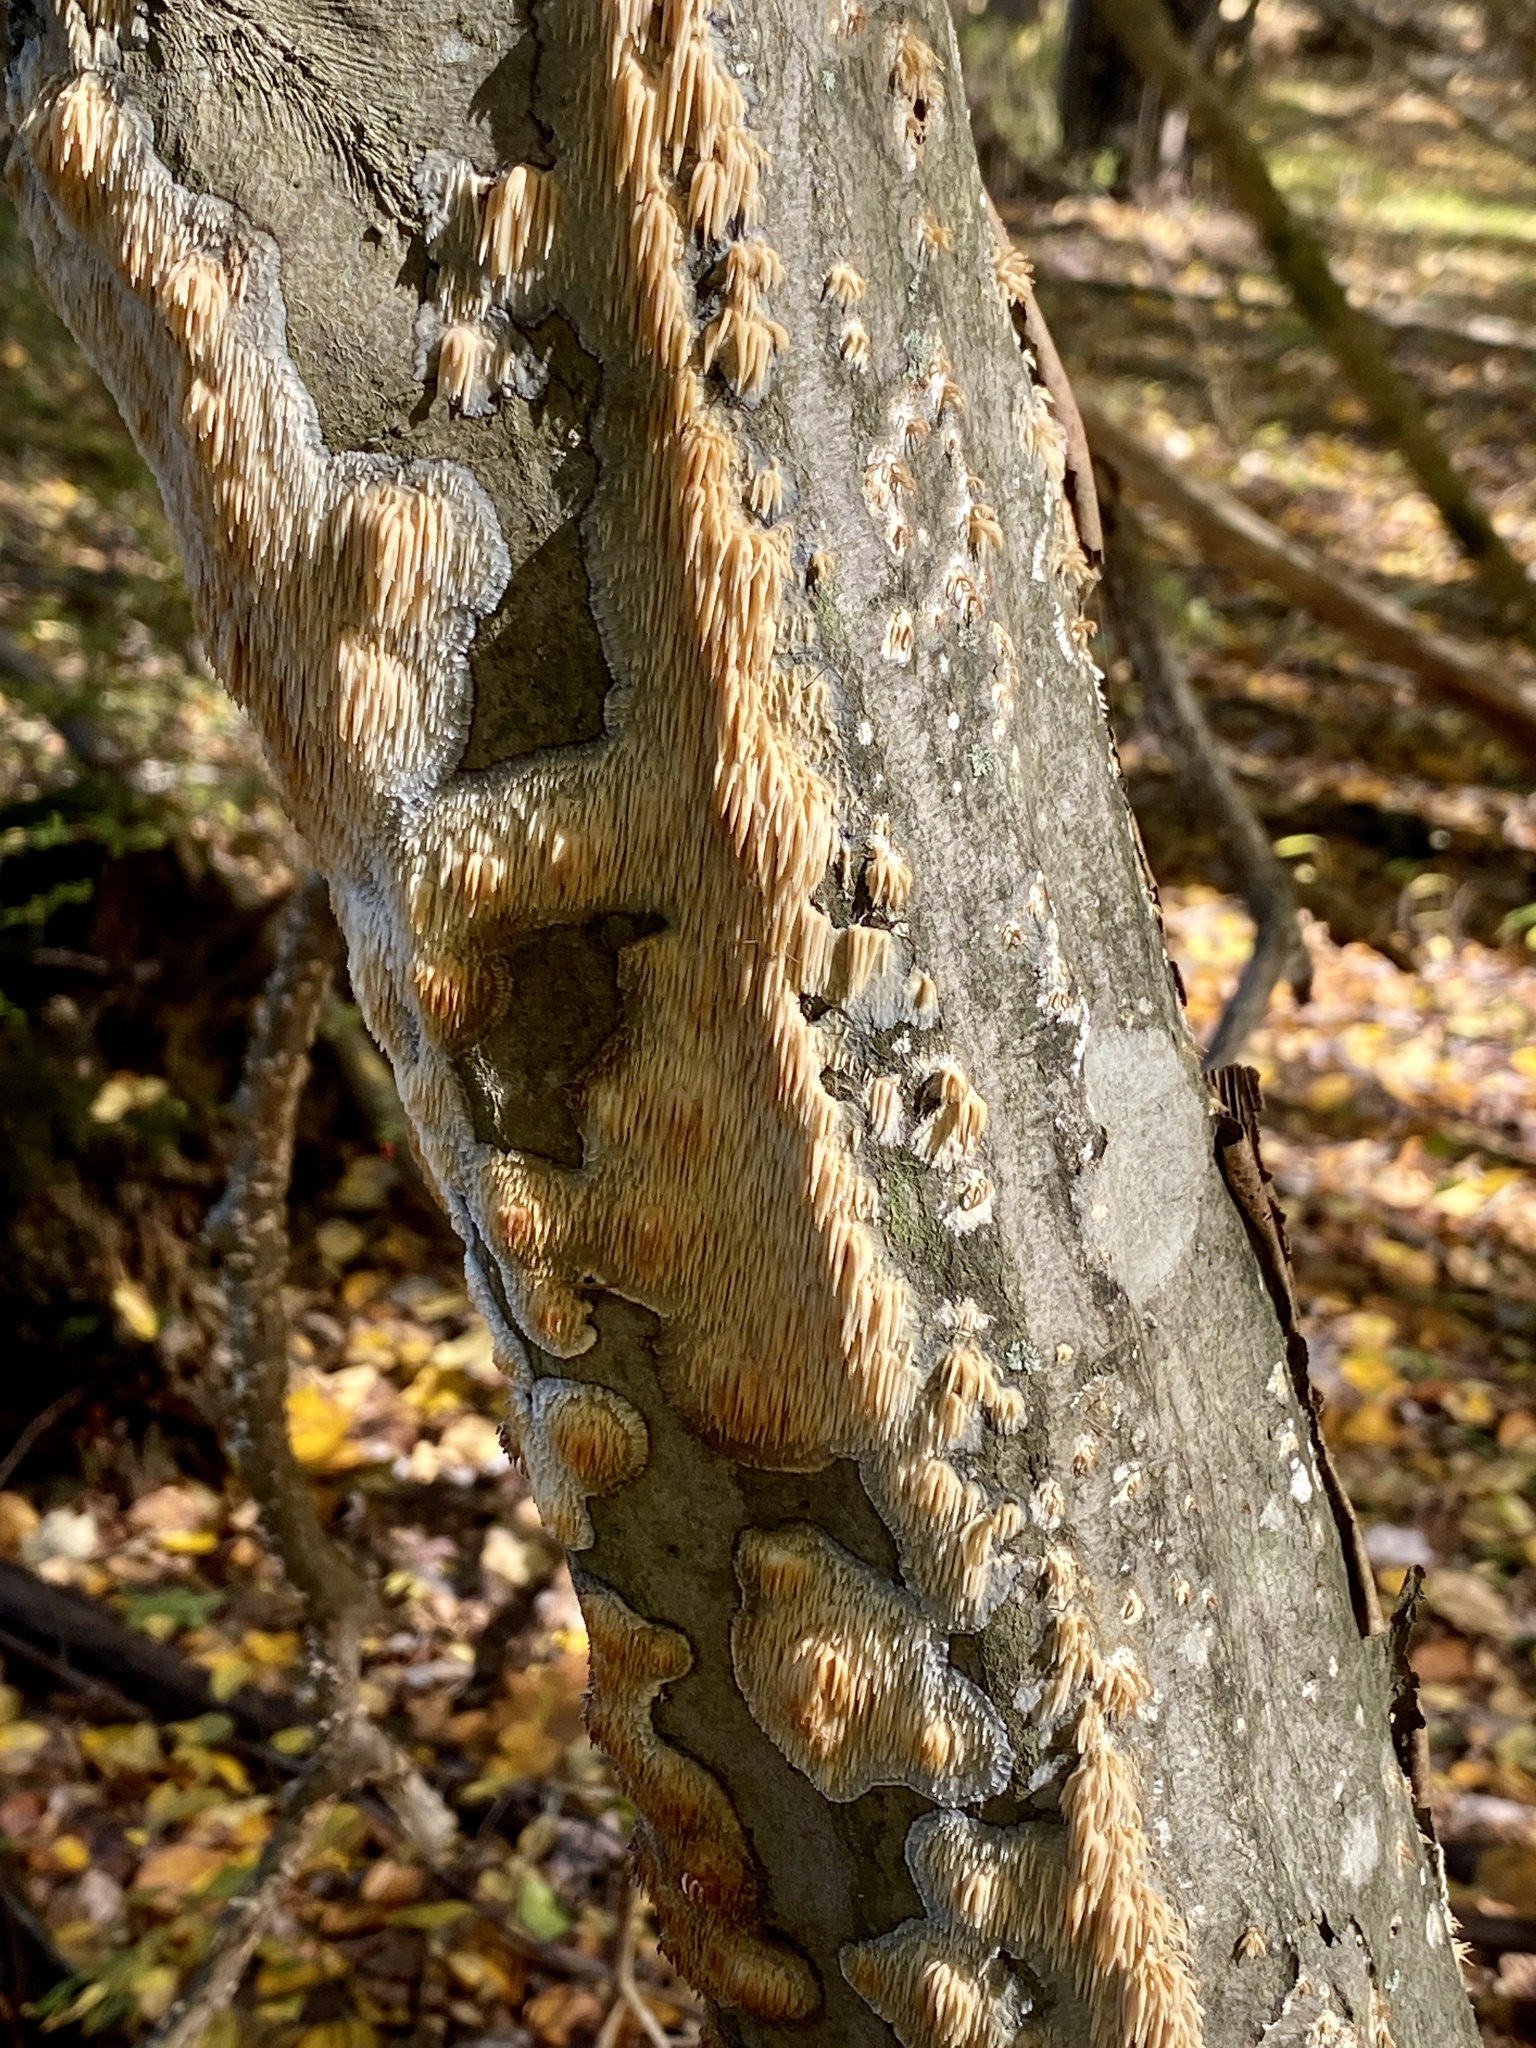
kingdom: Fungi
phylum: Basidiomycota
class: Agaricomycetes
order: Agaricales
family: Radulomycetaceae
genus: Radulomyces
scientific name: Radulomyces copelandii
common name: Asian beauty
